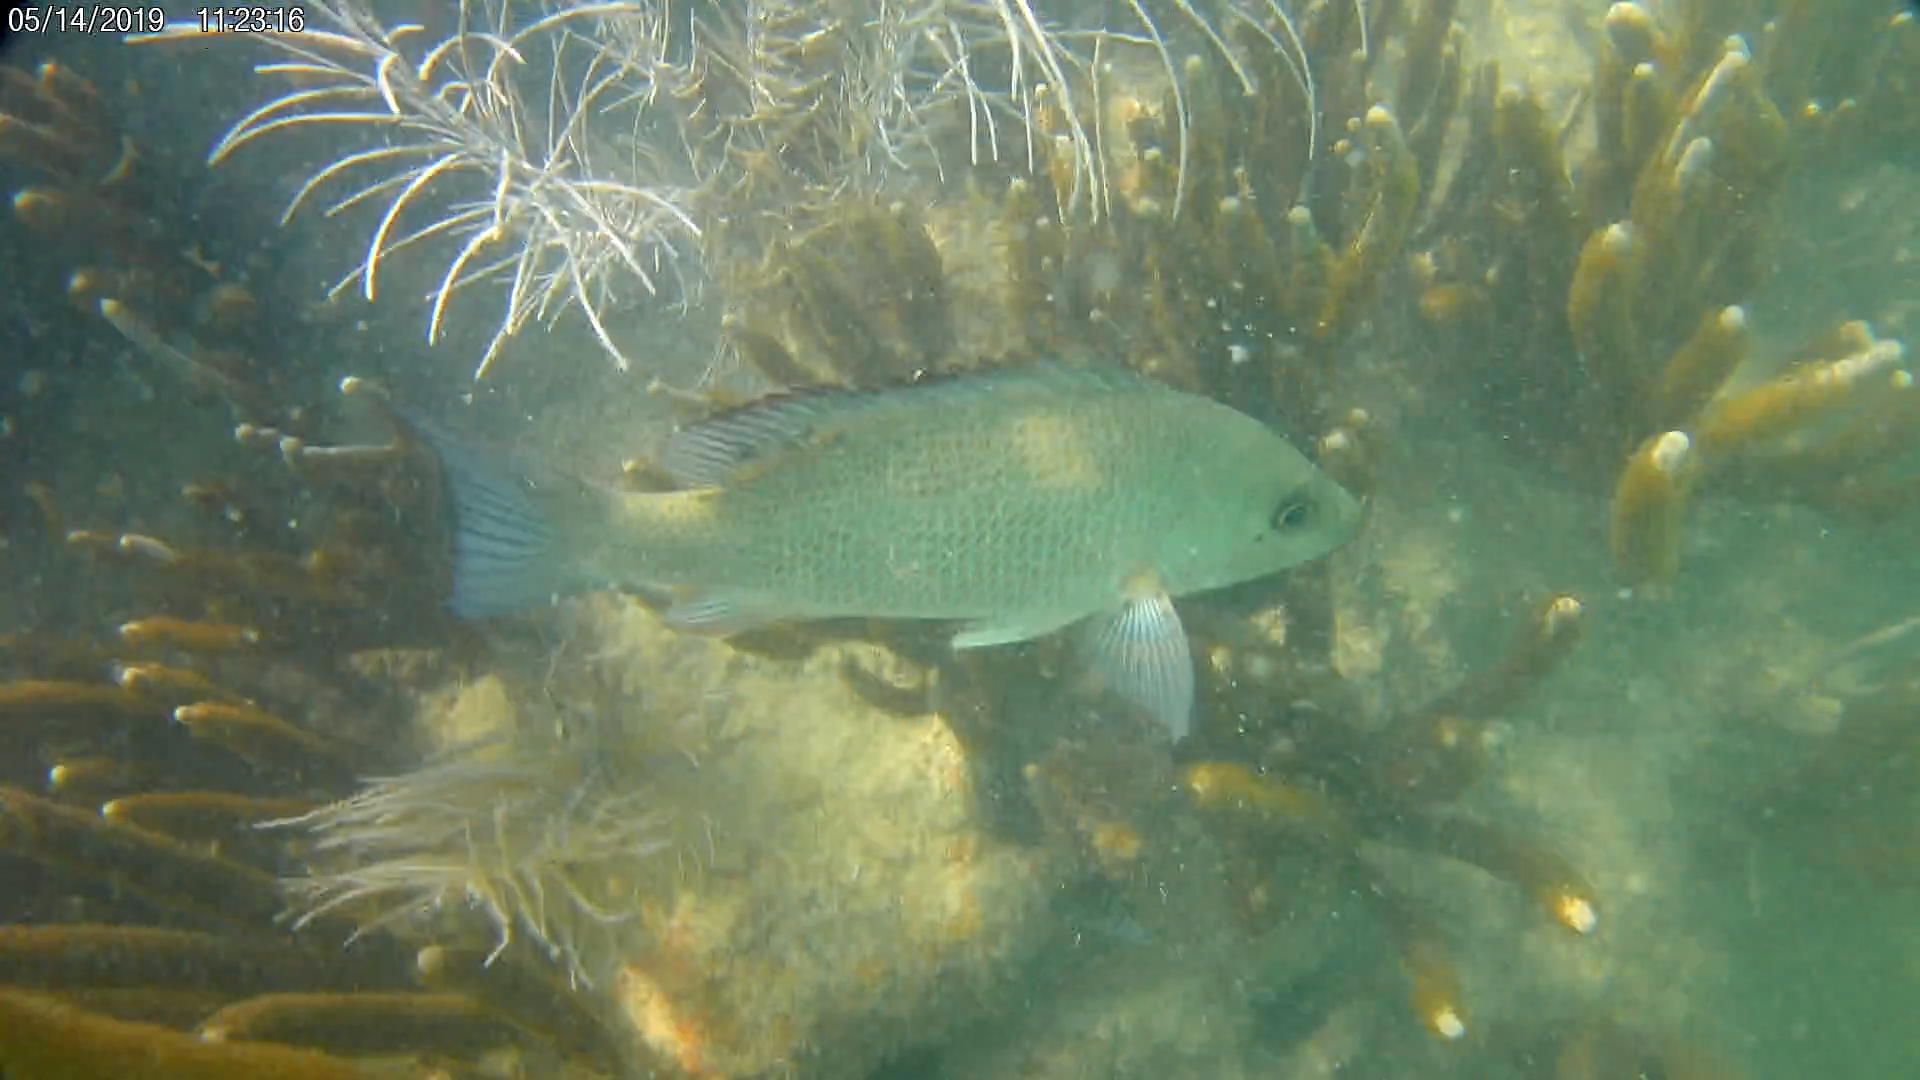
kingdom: Animalia
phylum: Chordata
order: Perciformes
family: Lutjanidae
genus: Lutjanus
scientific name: Lutjanus griseus
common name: Gray snapper
